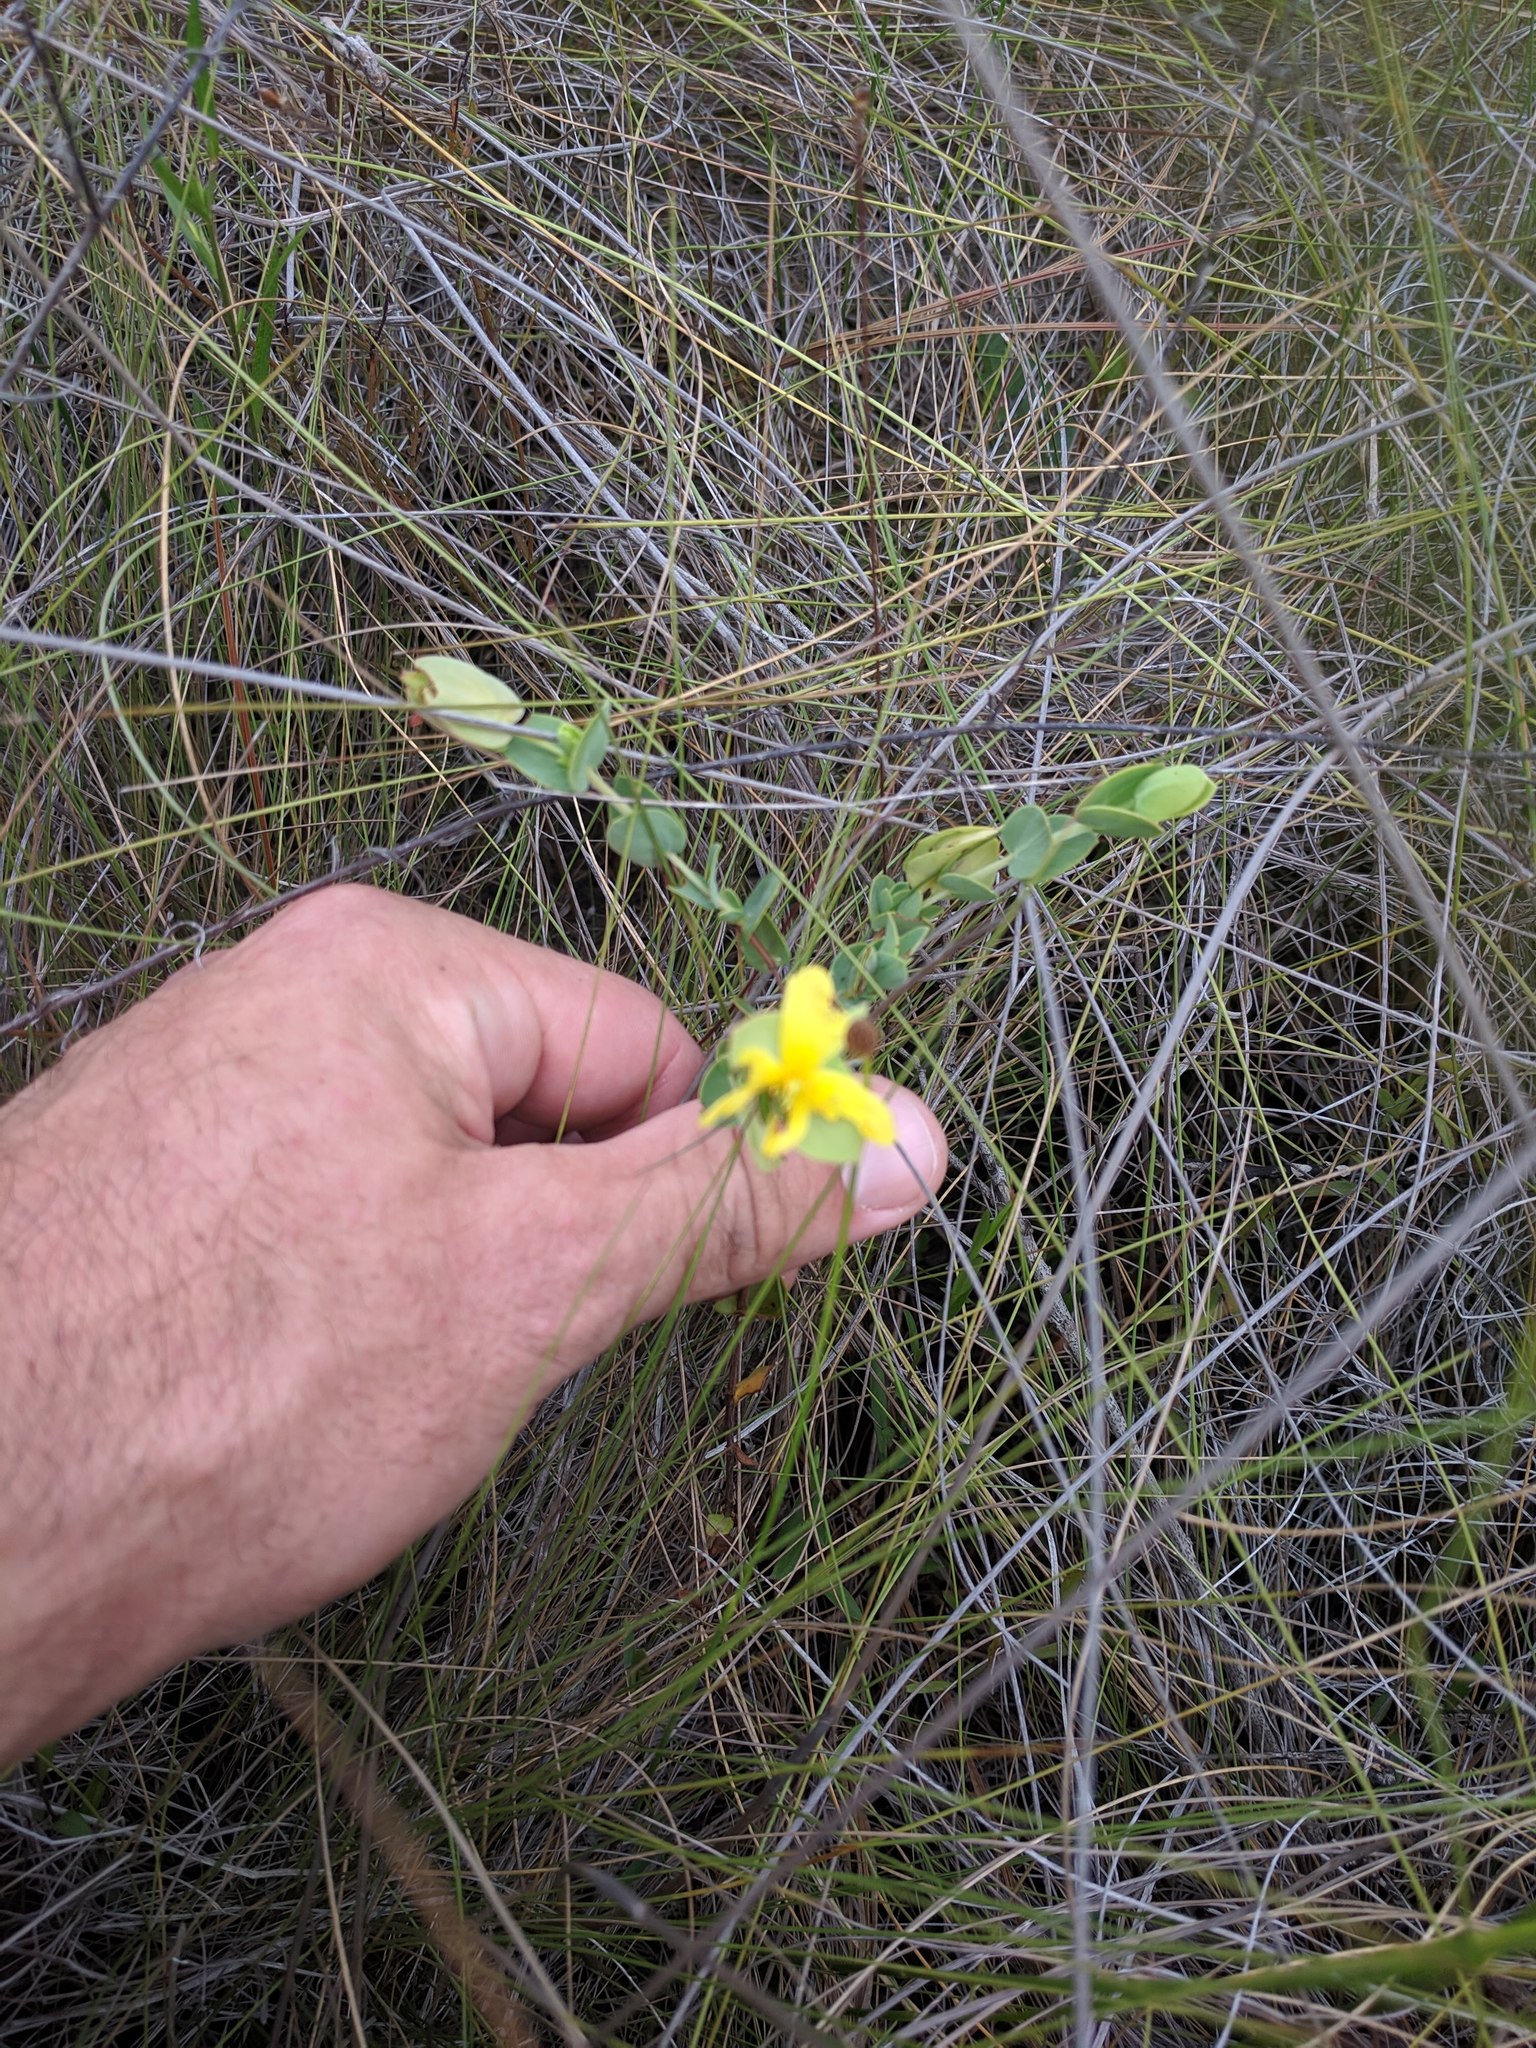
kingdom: Plantae
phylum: Tracheophyta
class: Magnoliopsida
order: Malpighiales
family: Hypericaceae
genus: Hypericum
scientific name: Hypericum tetrapetalum
